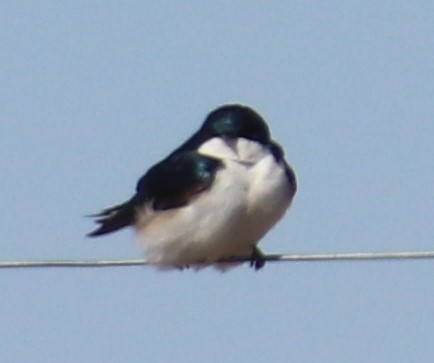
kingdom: Animalia
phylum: Chordata
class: Aves
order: Passeriformes
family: Hirundinidae
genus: Tachycineta
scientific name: Tachycineta bicolor
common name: Tree swallow
